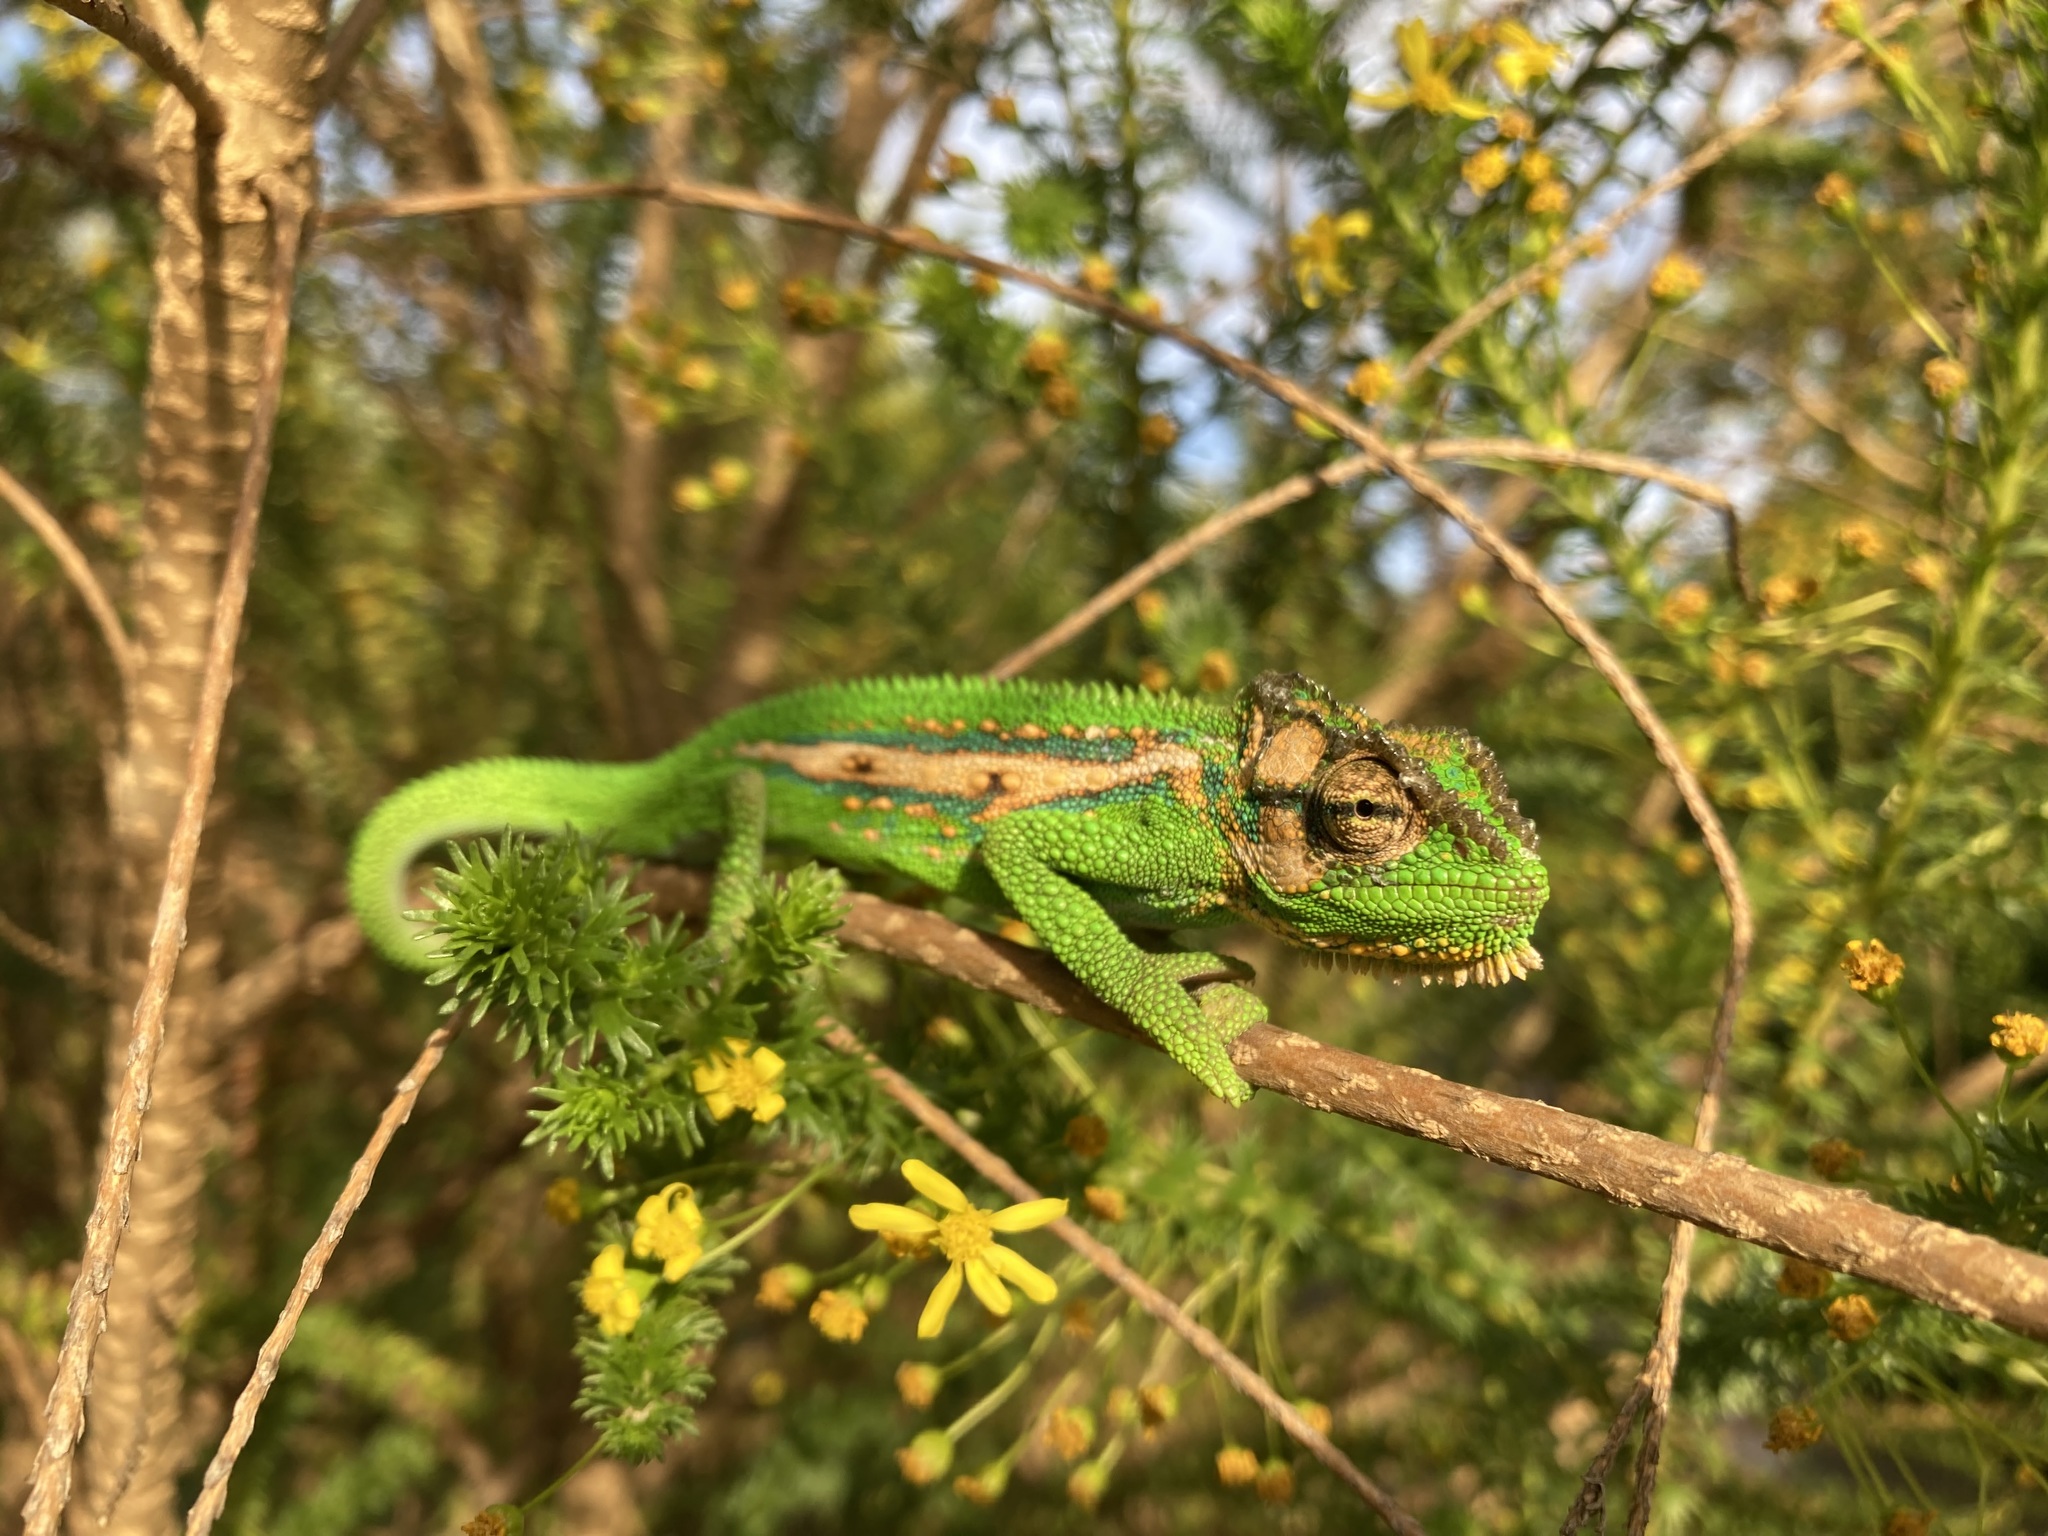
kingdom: Animalia
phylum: Chordata
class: Squamata
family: Chamaeleonidae
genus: Bradypodion
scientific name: Bradypodion pumilum
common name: Cape dwarf chameleon
